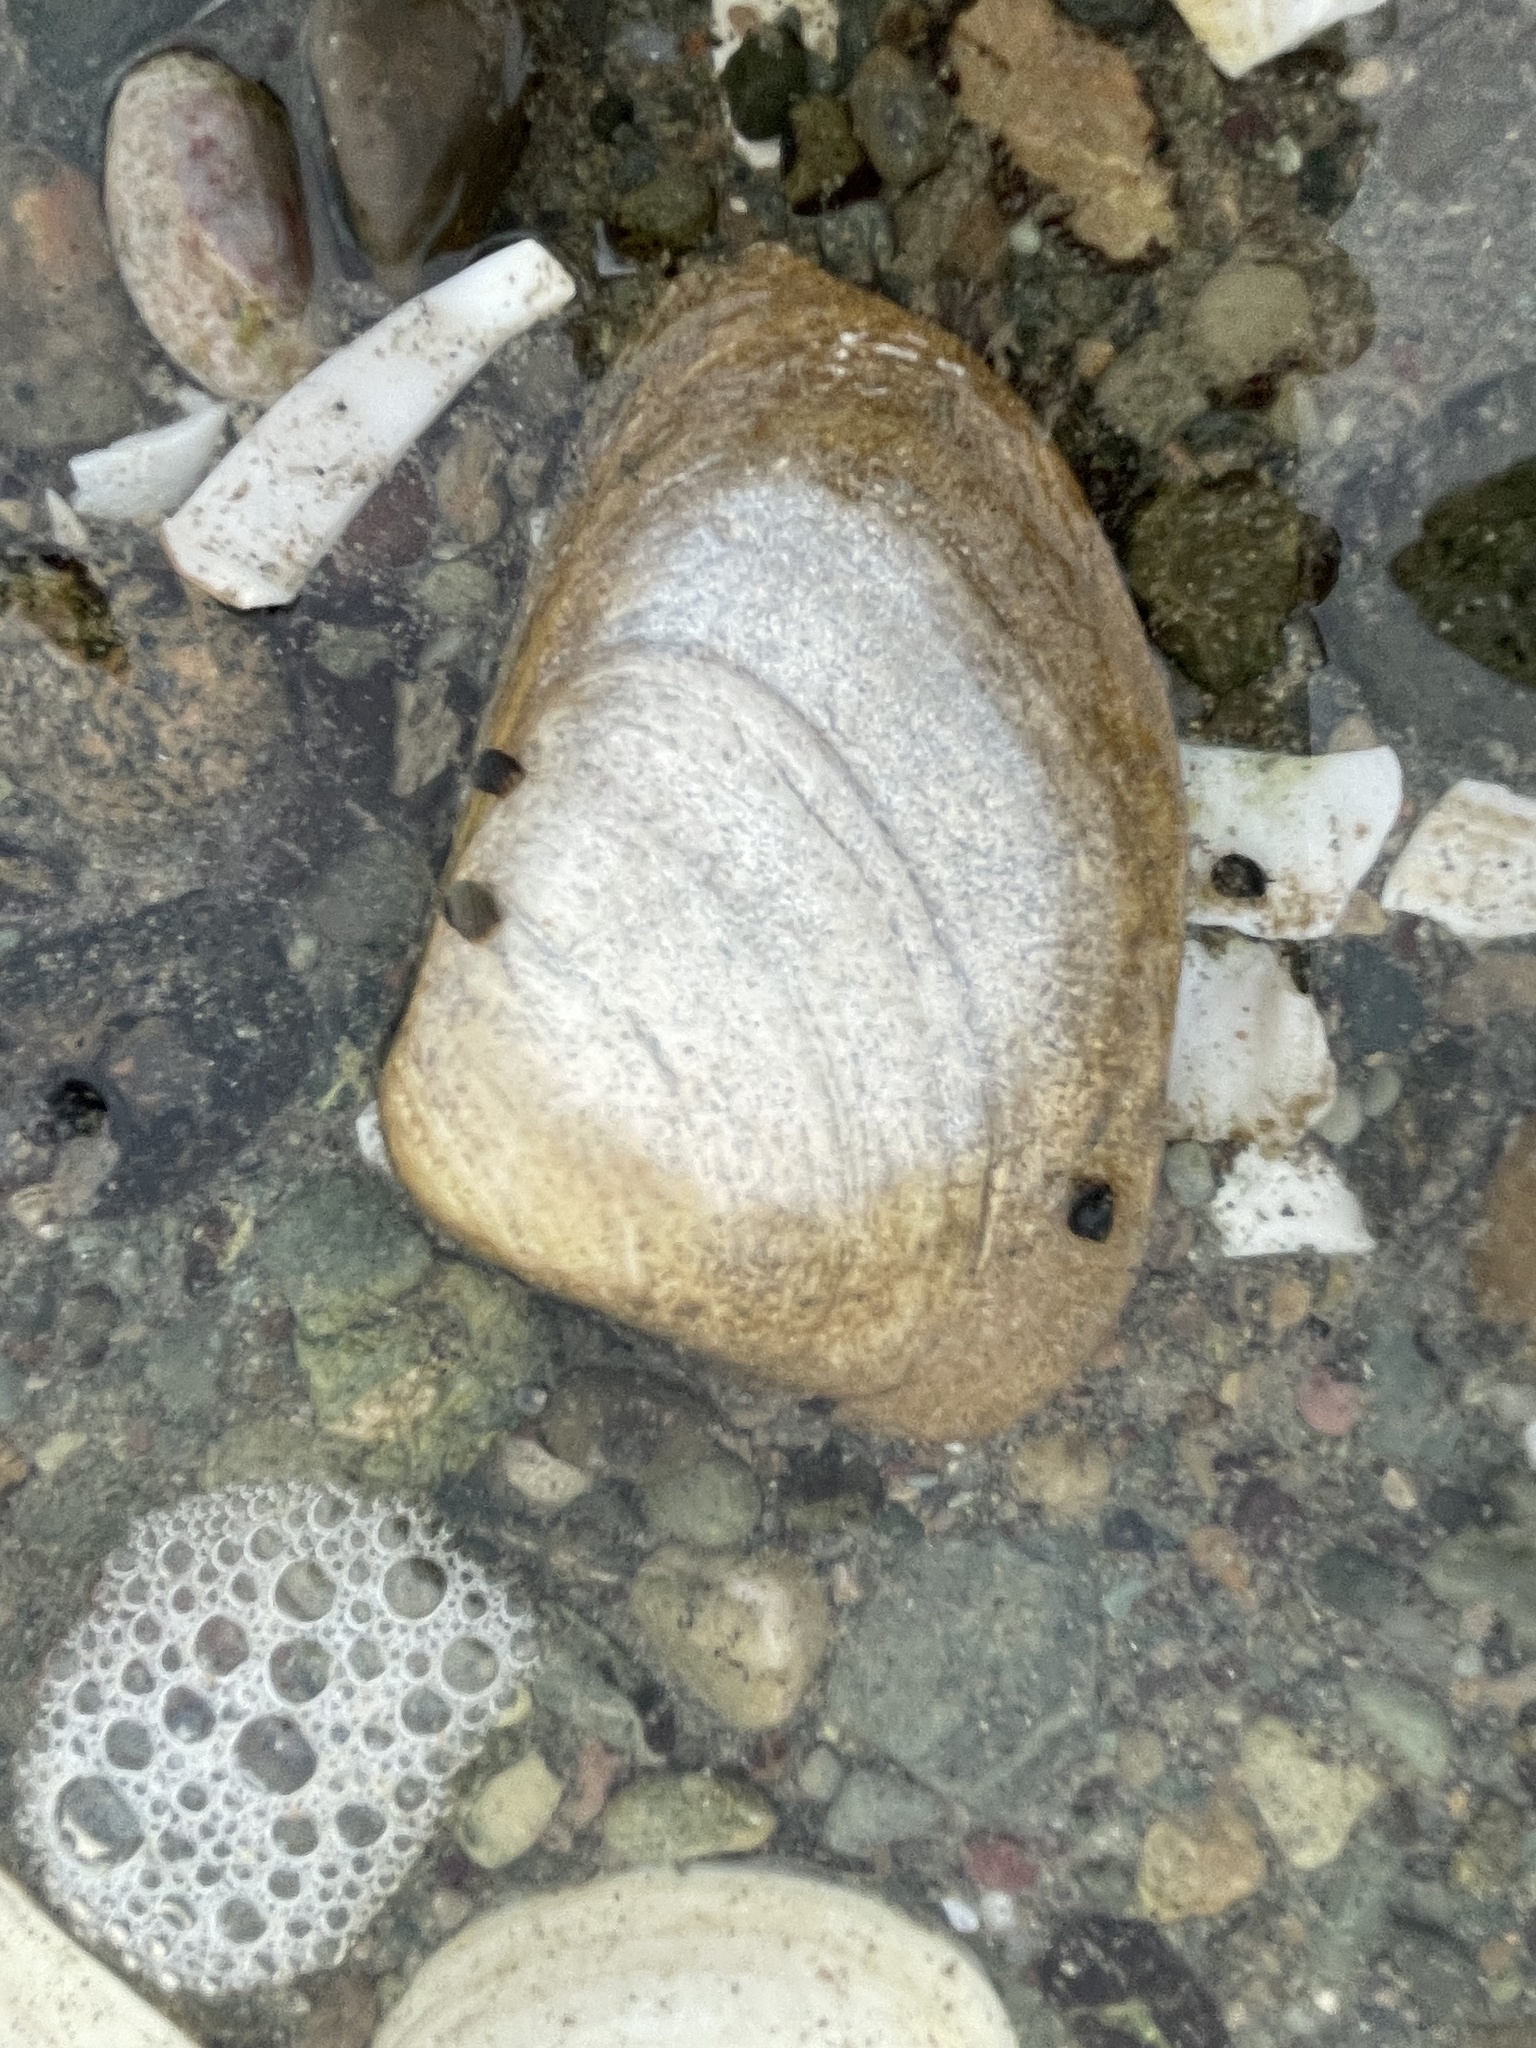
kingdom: Animalia
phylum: Mollusca
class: Bivalvia
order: Venerida
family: Mactridae
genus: Spisula
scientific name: Spisula solidissima
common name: Atlantic surf clam
